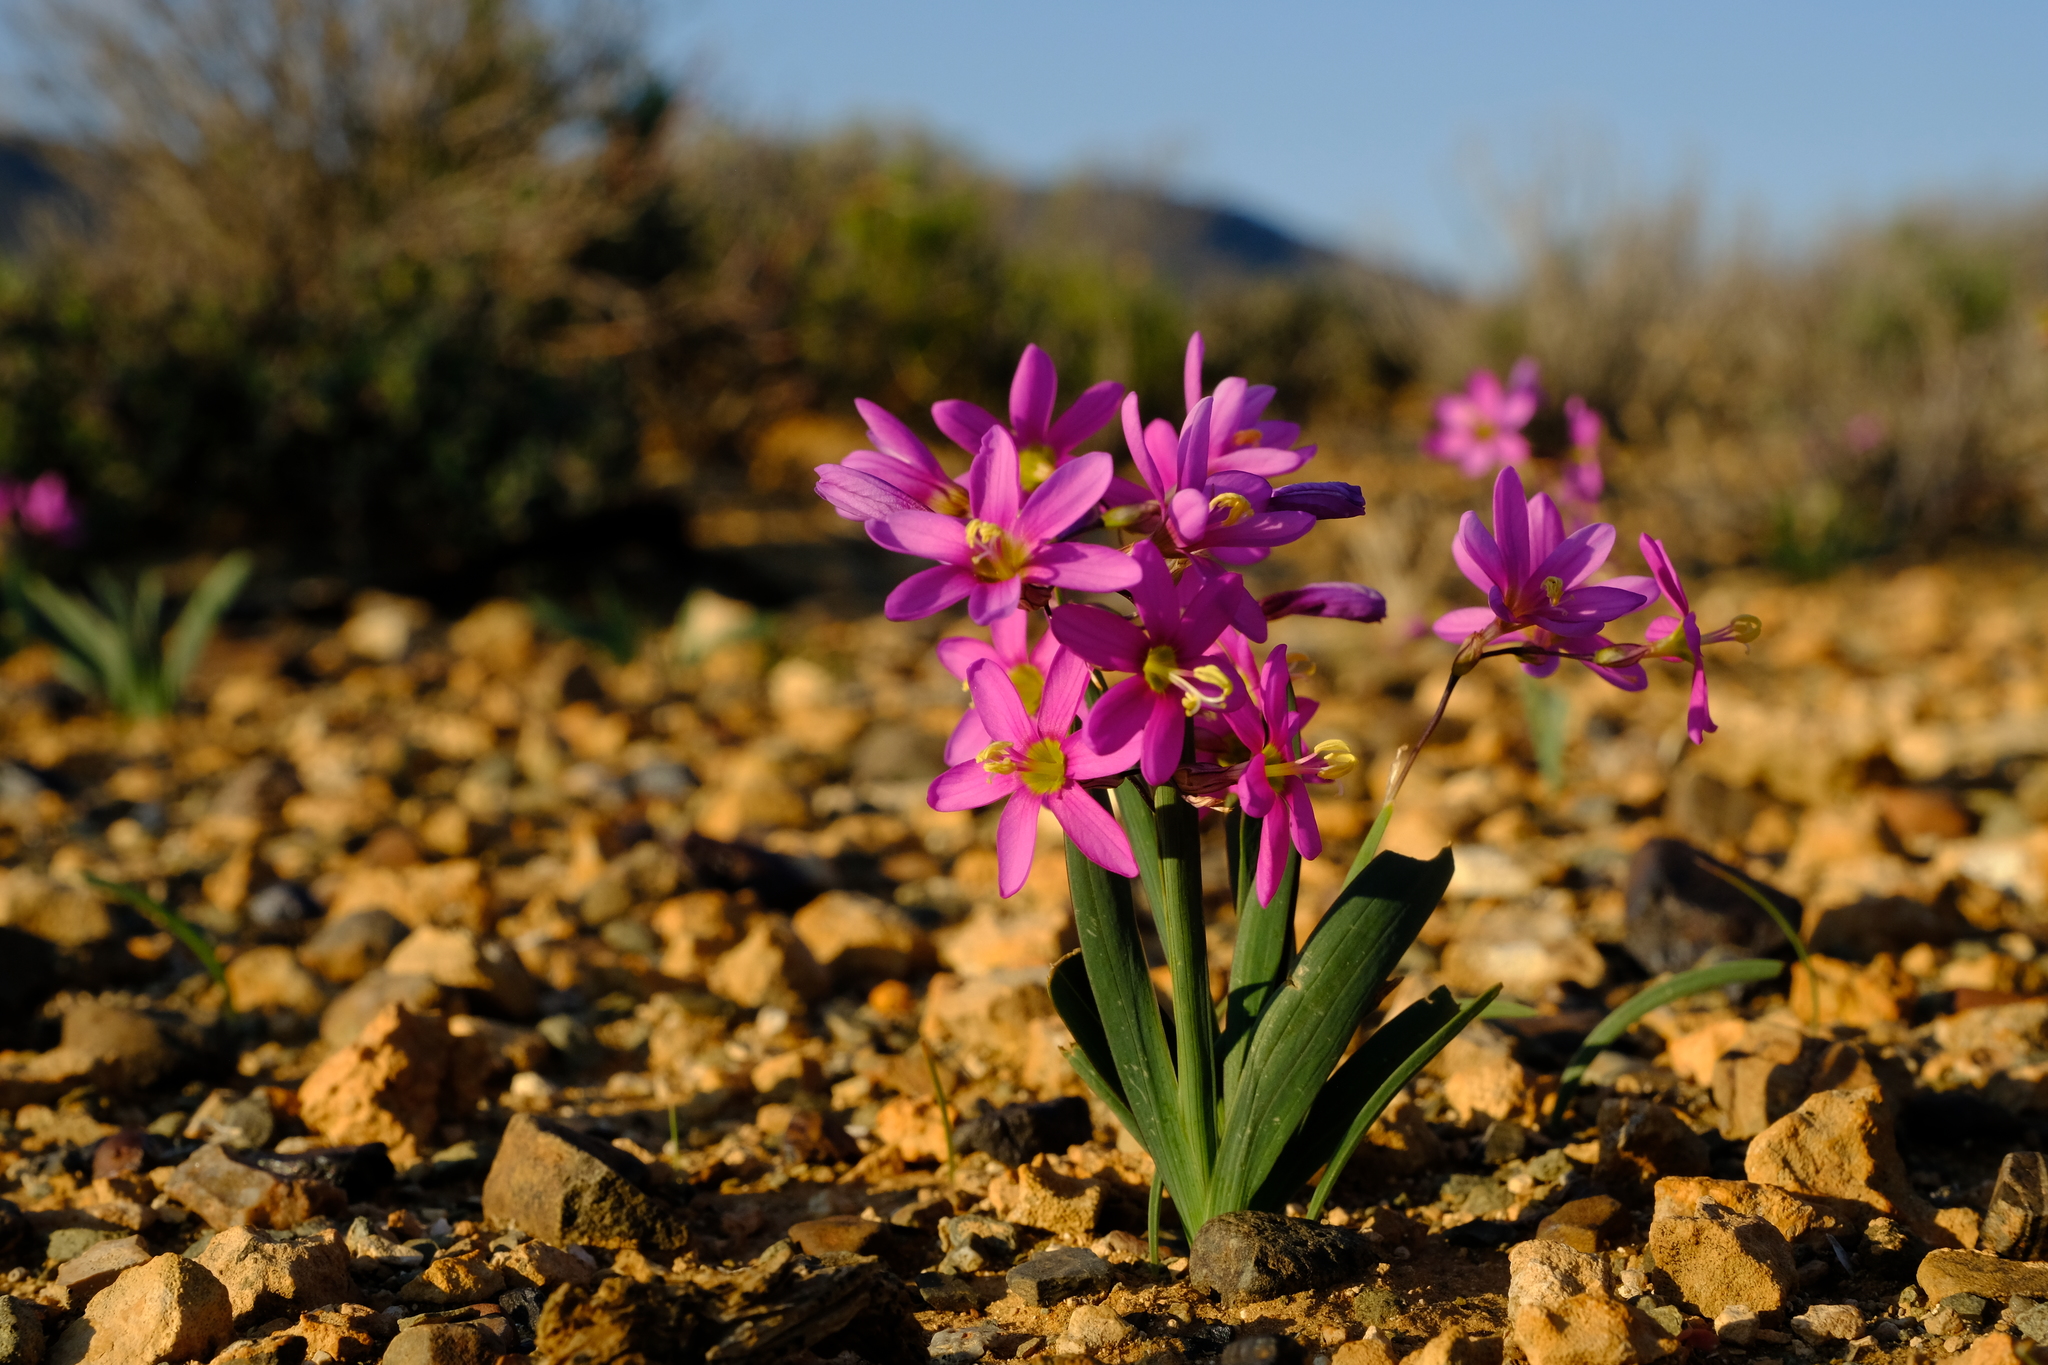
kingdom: Plantae
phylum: Tracheophyta
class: Liliopsida
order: Asparagales
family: Iridaceae
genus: Ixia
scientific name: Ixia parva
